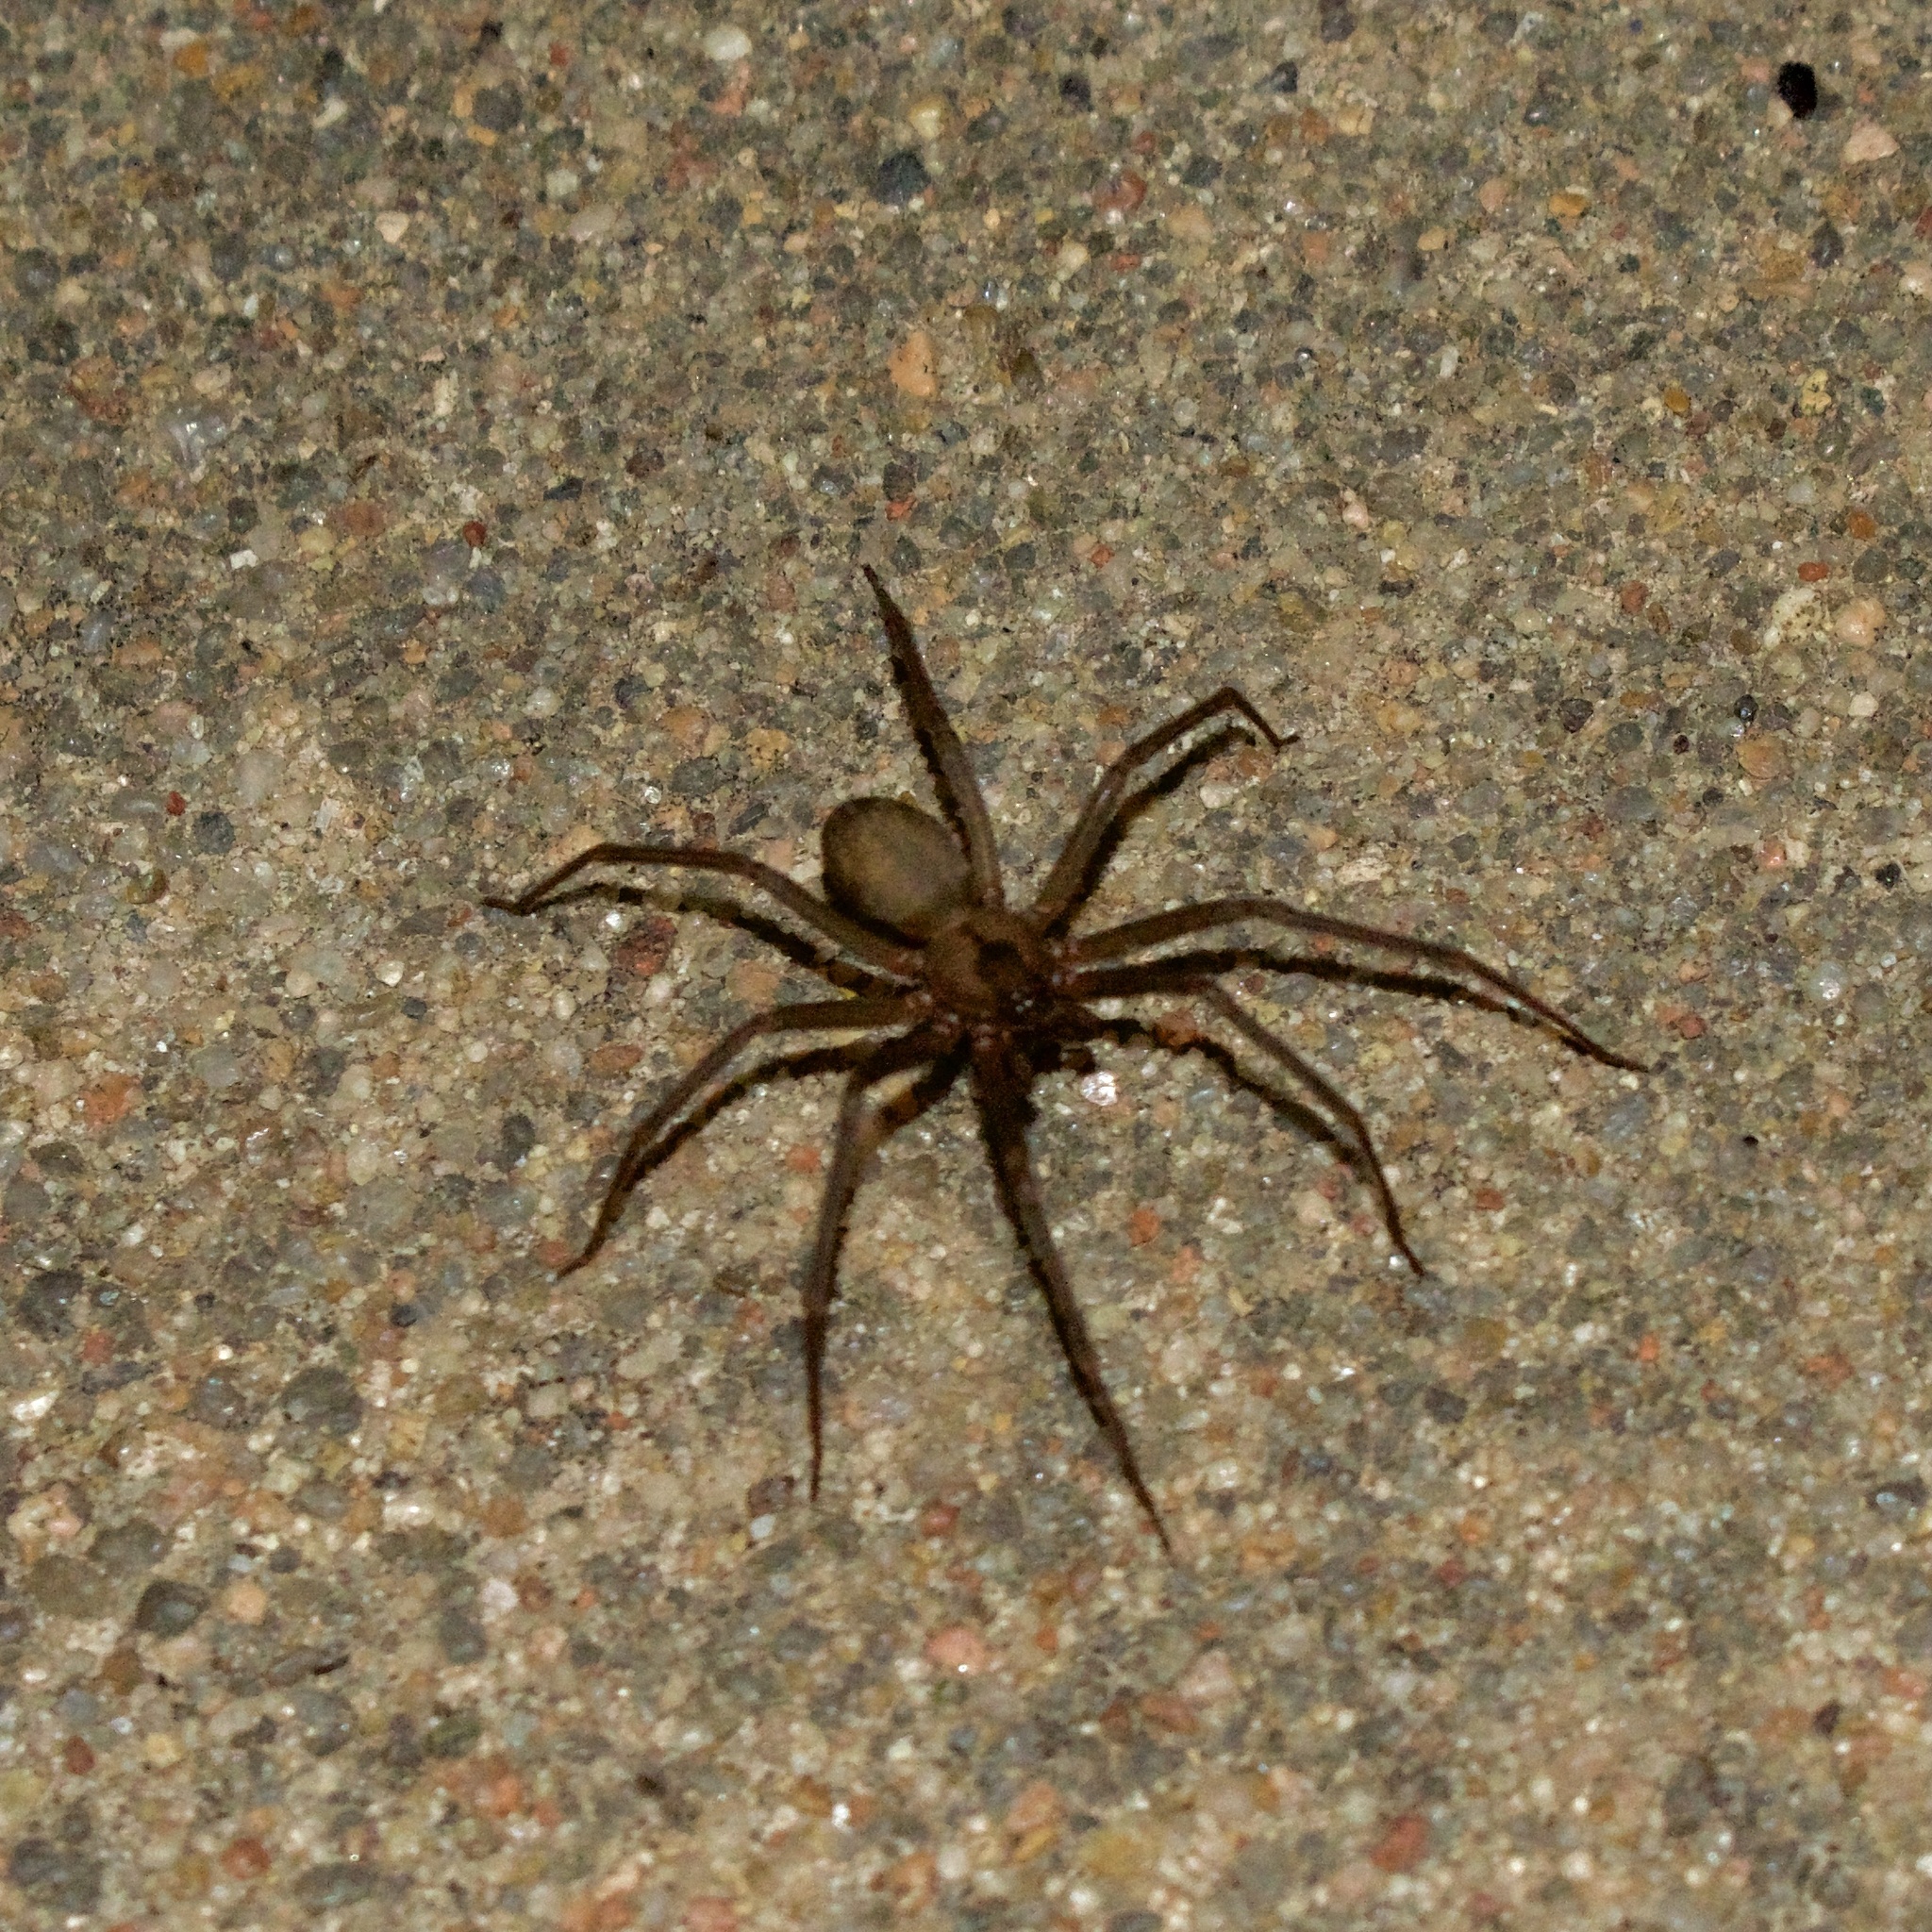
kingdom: Animalia
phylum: Arthropoda
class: Arachnida
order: Araneae
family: Sicariidae
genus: Loxosceles
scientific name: Loxosceles reclusa
